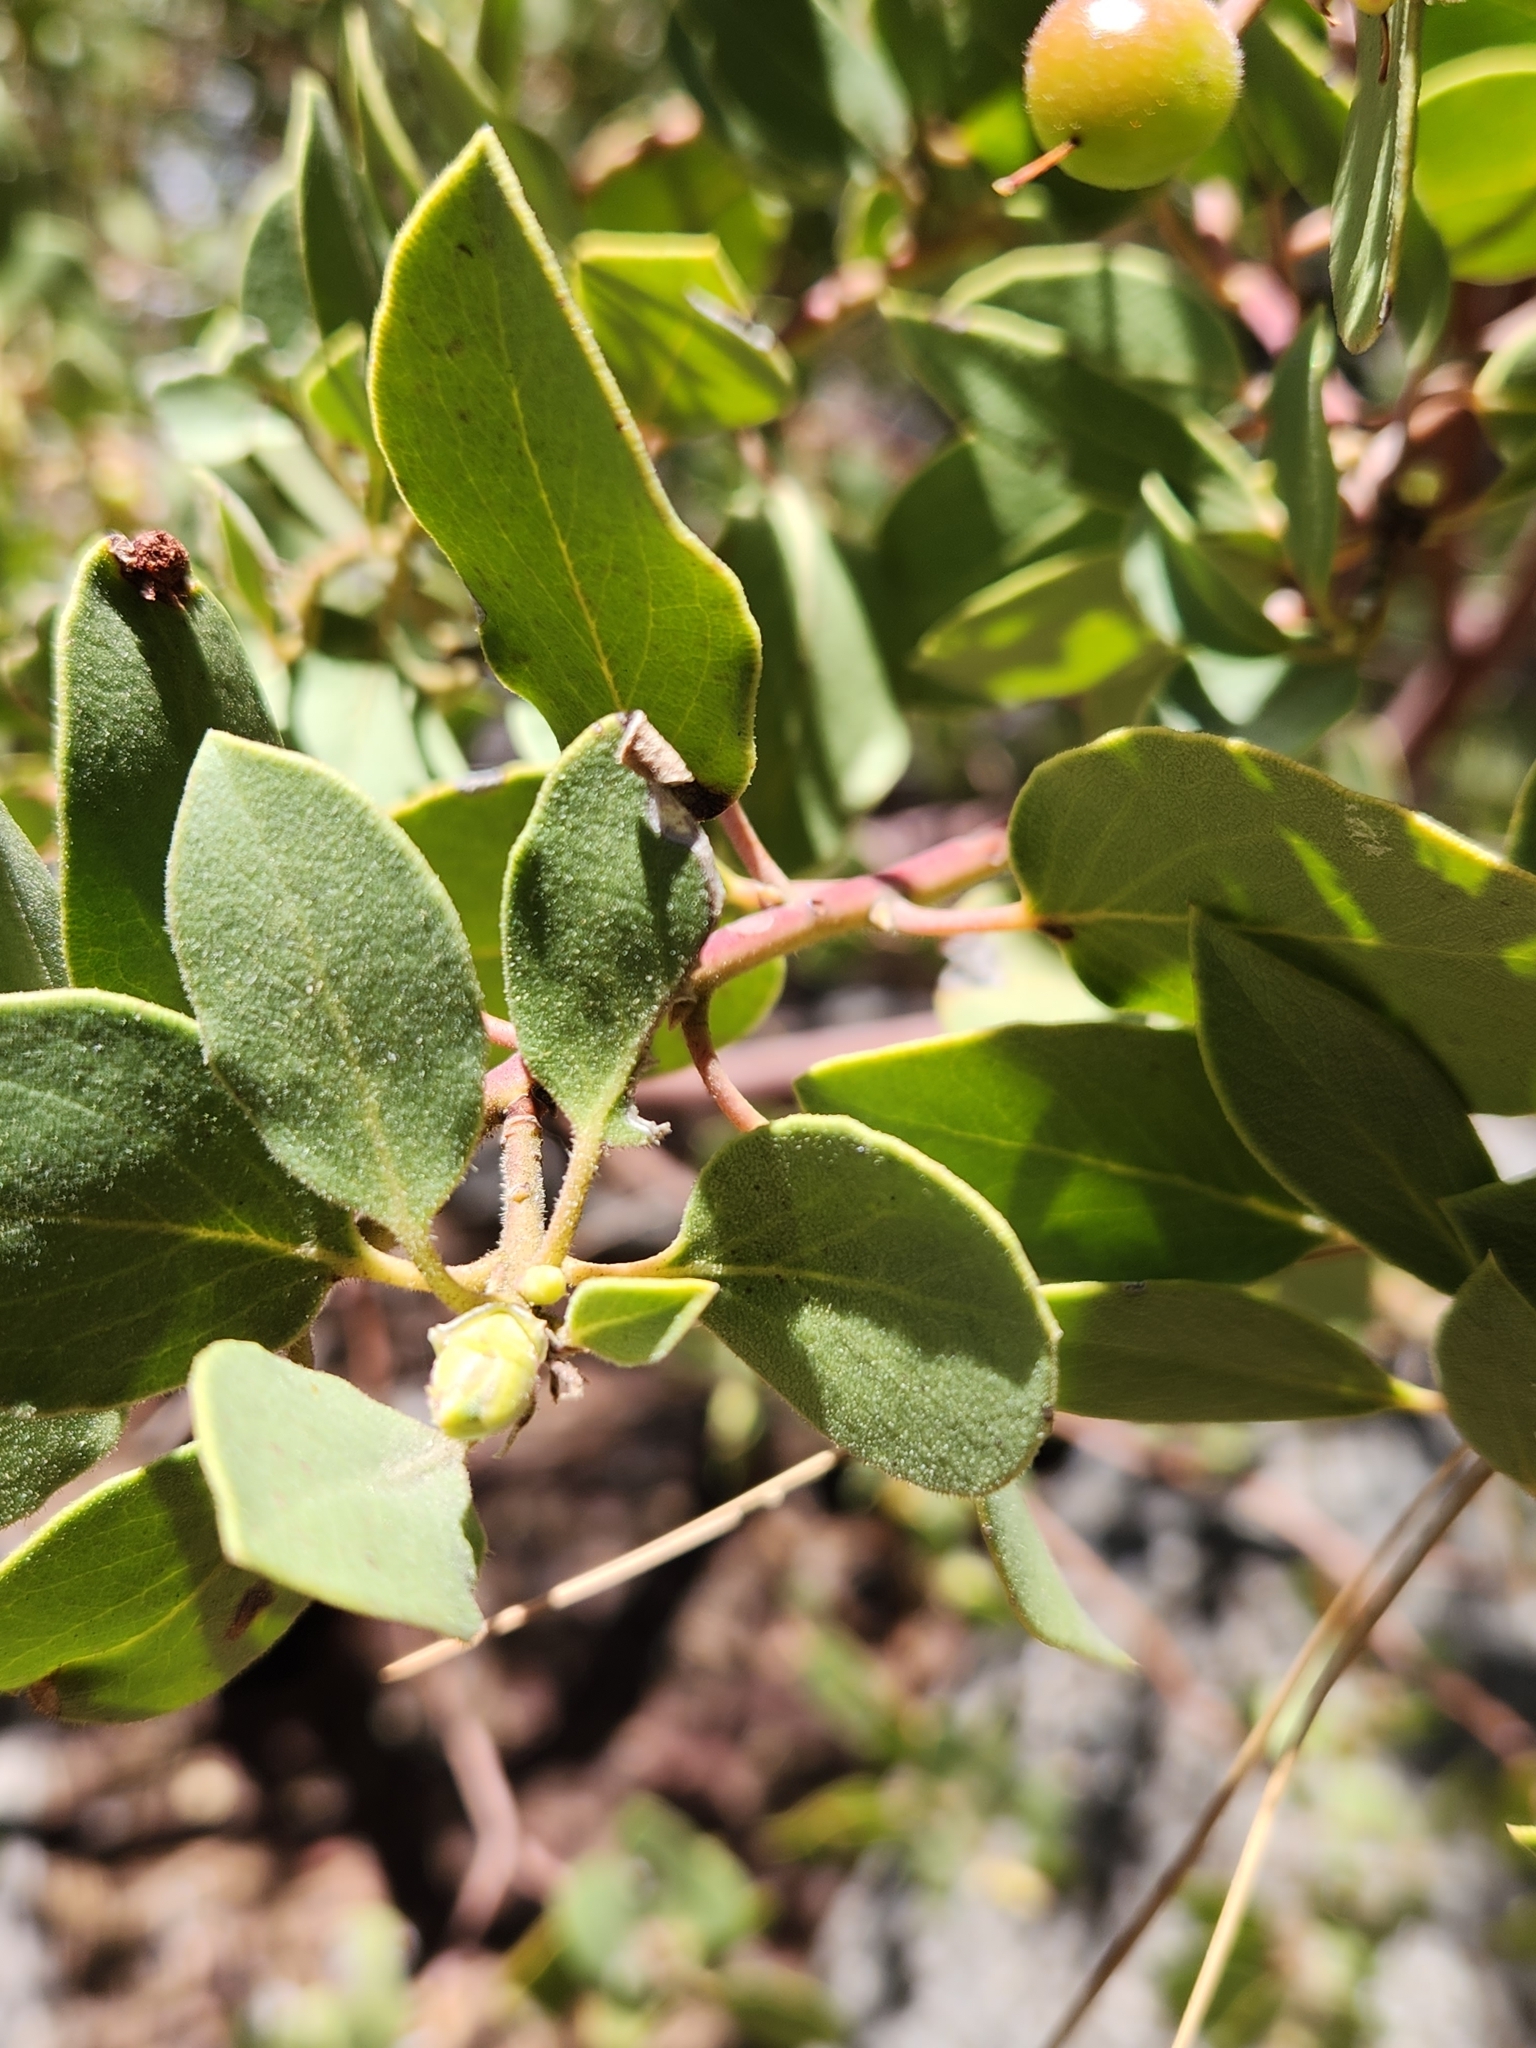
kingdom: Plantae
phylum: Tracheophyta
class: Magnoliopsida
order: Ericales
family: Ericaceae
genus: Arctostaphylos
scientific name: Arctostaphylos glandulosa
